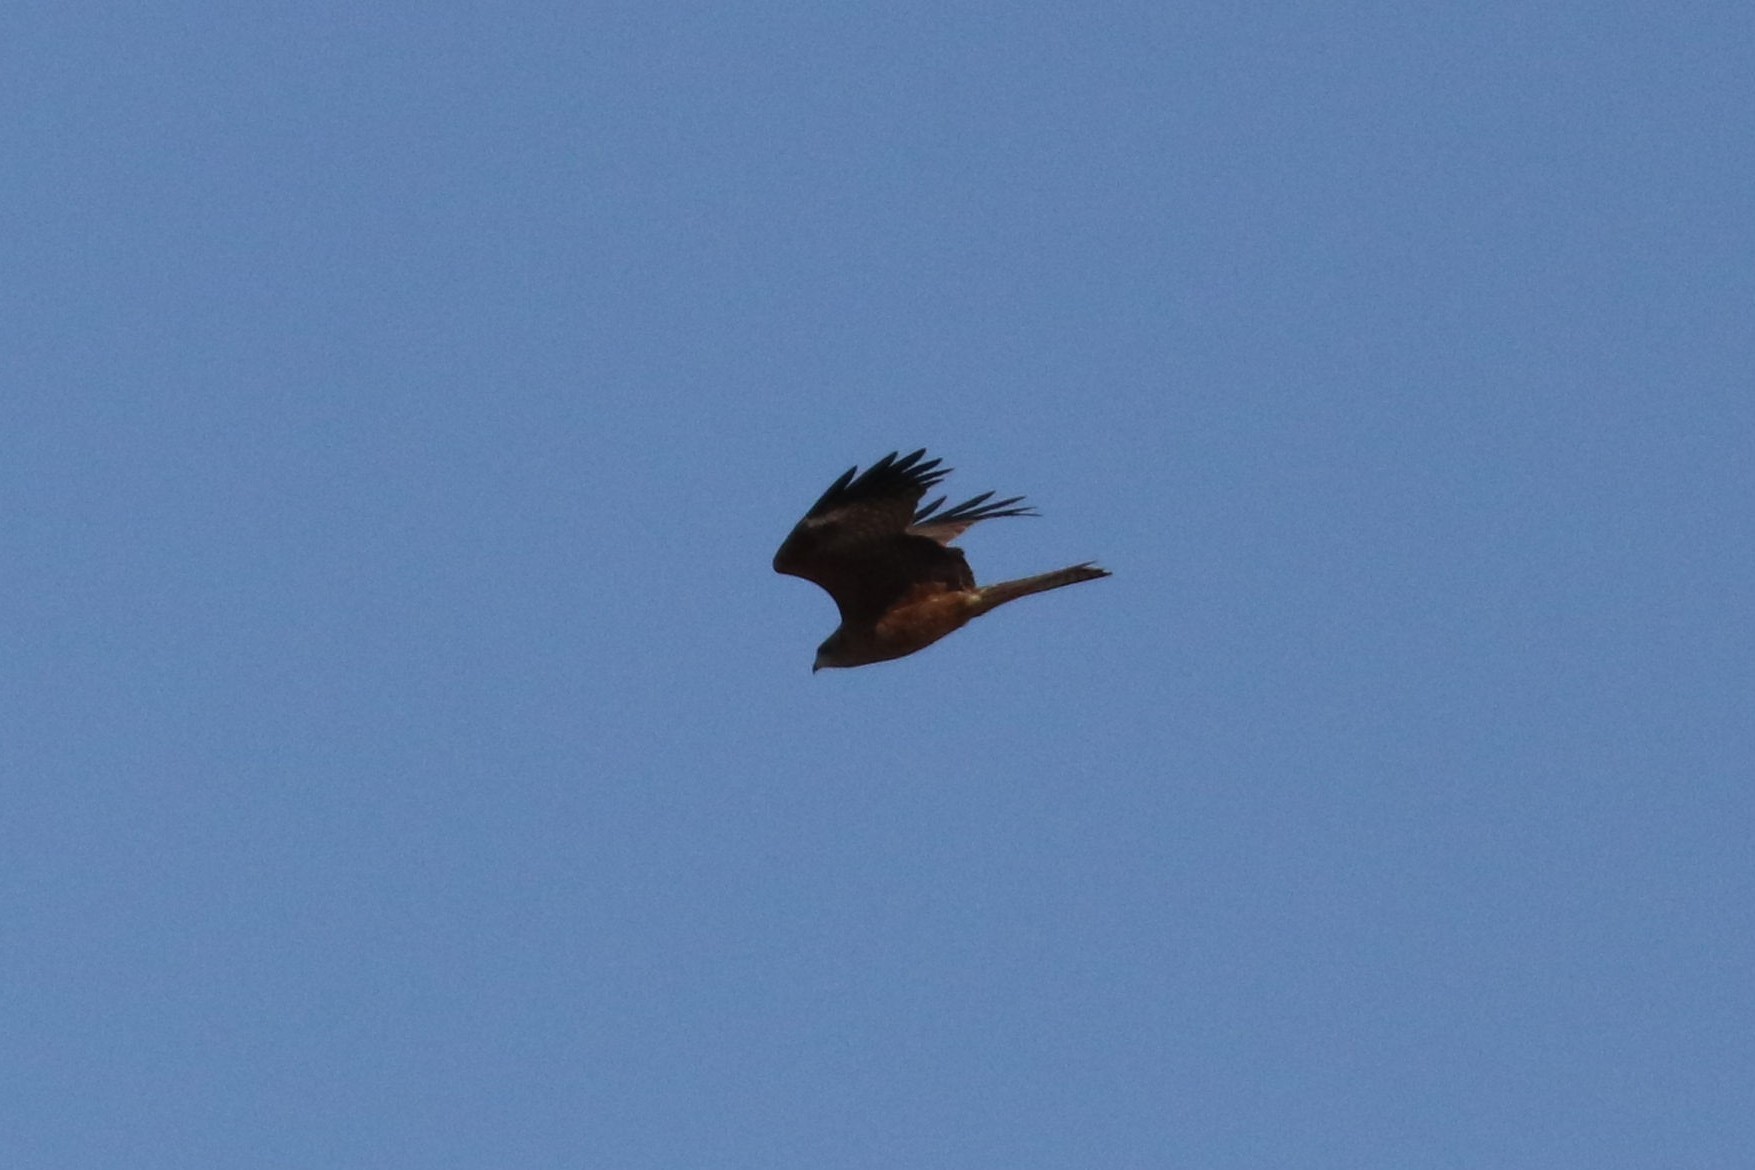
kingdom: Animalia
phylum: Chordata
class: Aves
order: Accipitriformes
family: Accipitridae
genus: Milvus
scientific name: Milvus migrans
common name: Black kite
